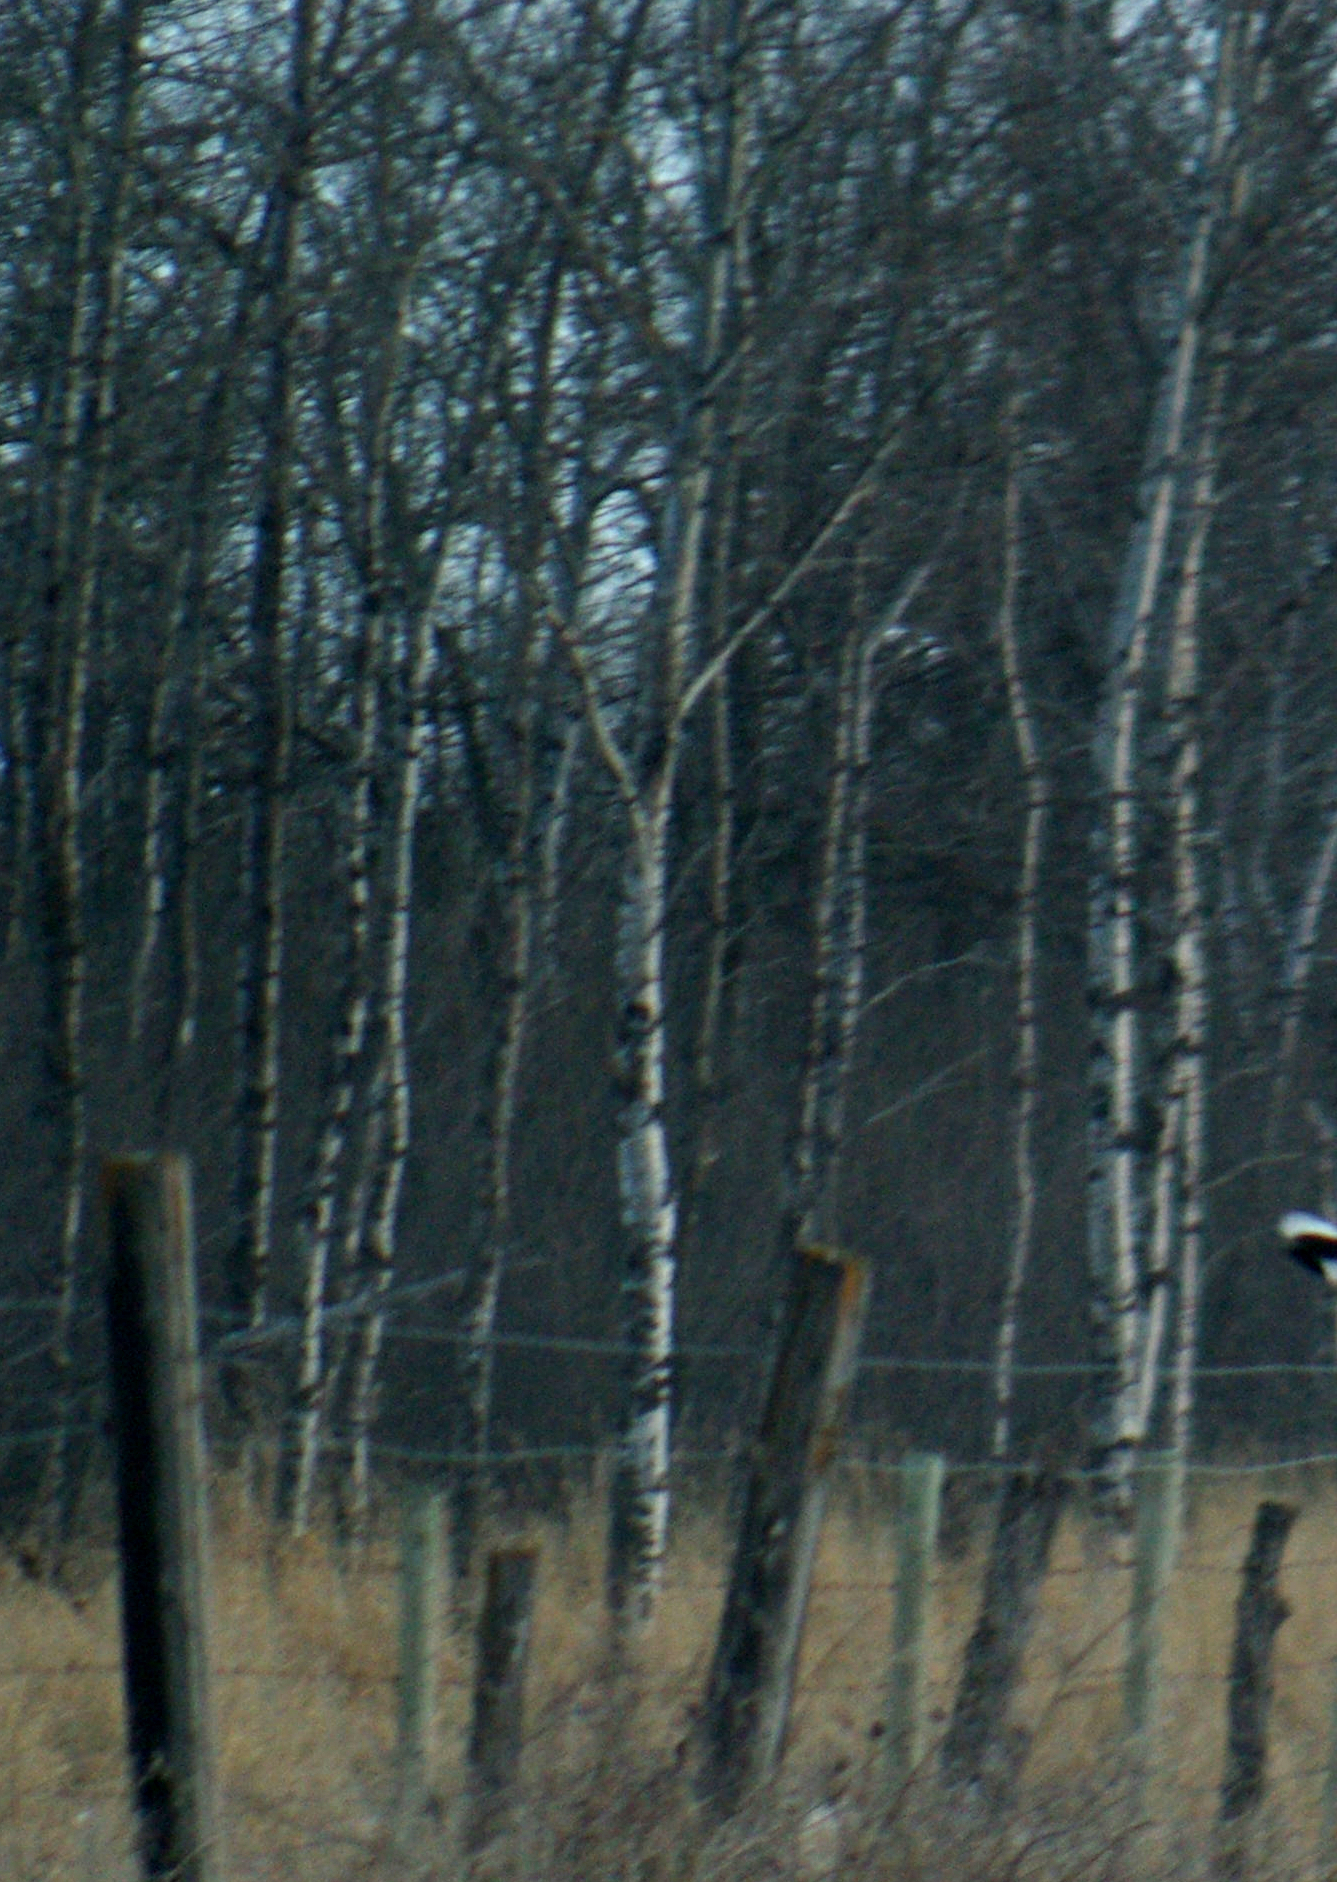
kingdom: Plantae
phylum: Tracheophyta
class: Magnoliopsida
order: Malpighiales
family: Salicaceae
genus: Populus
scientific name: Populus tremuloides
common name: Quaking aspen
